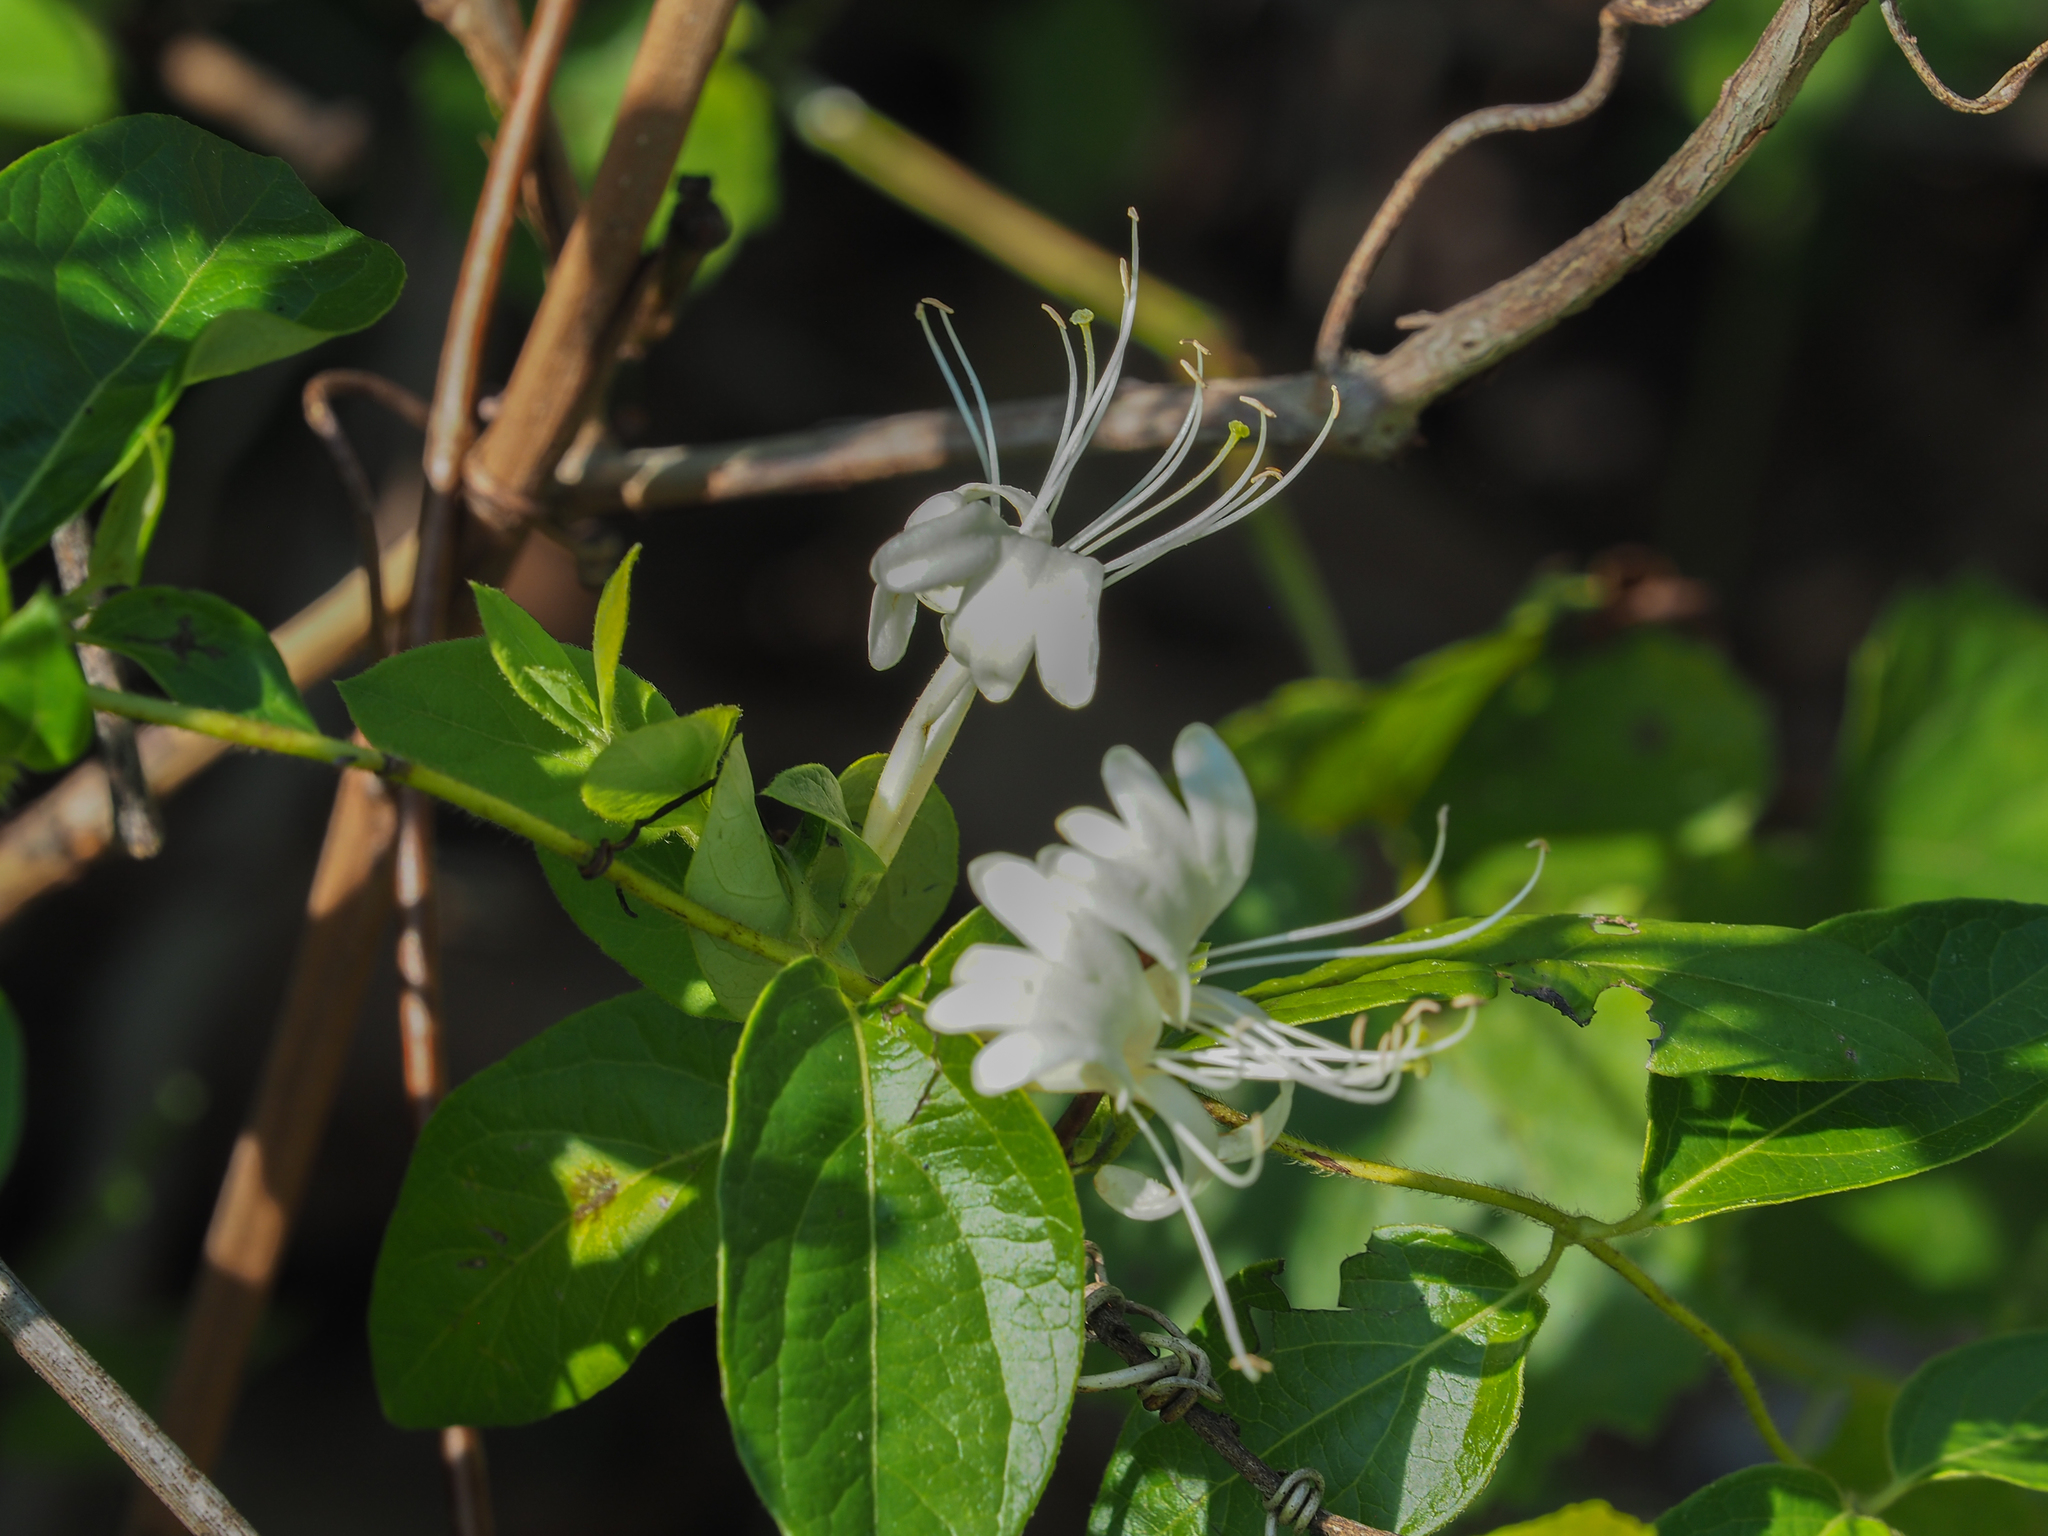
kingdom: Plantae
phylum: Tracheophyta
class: Magnoliopsida
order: Dipsacales
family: Caprifoliaceae
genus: Lonicera
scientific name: Lonicera japonica
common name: Japanese honeysuckle
